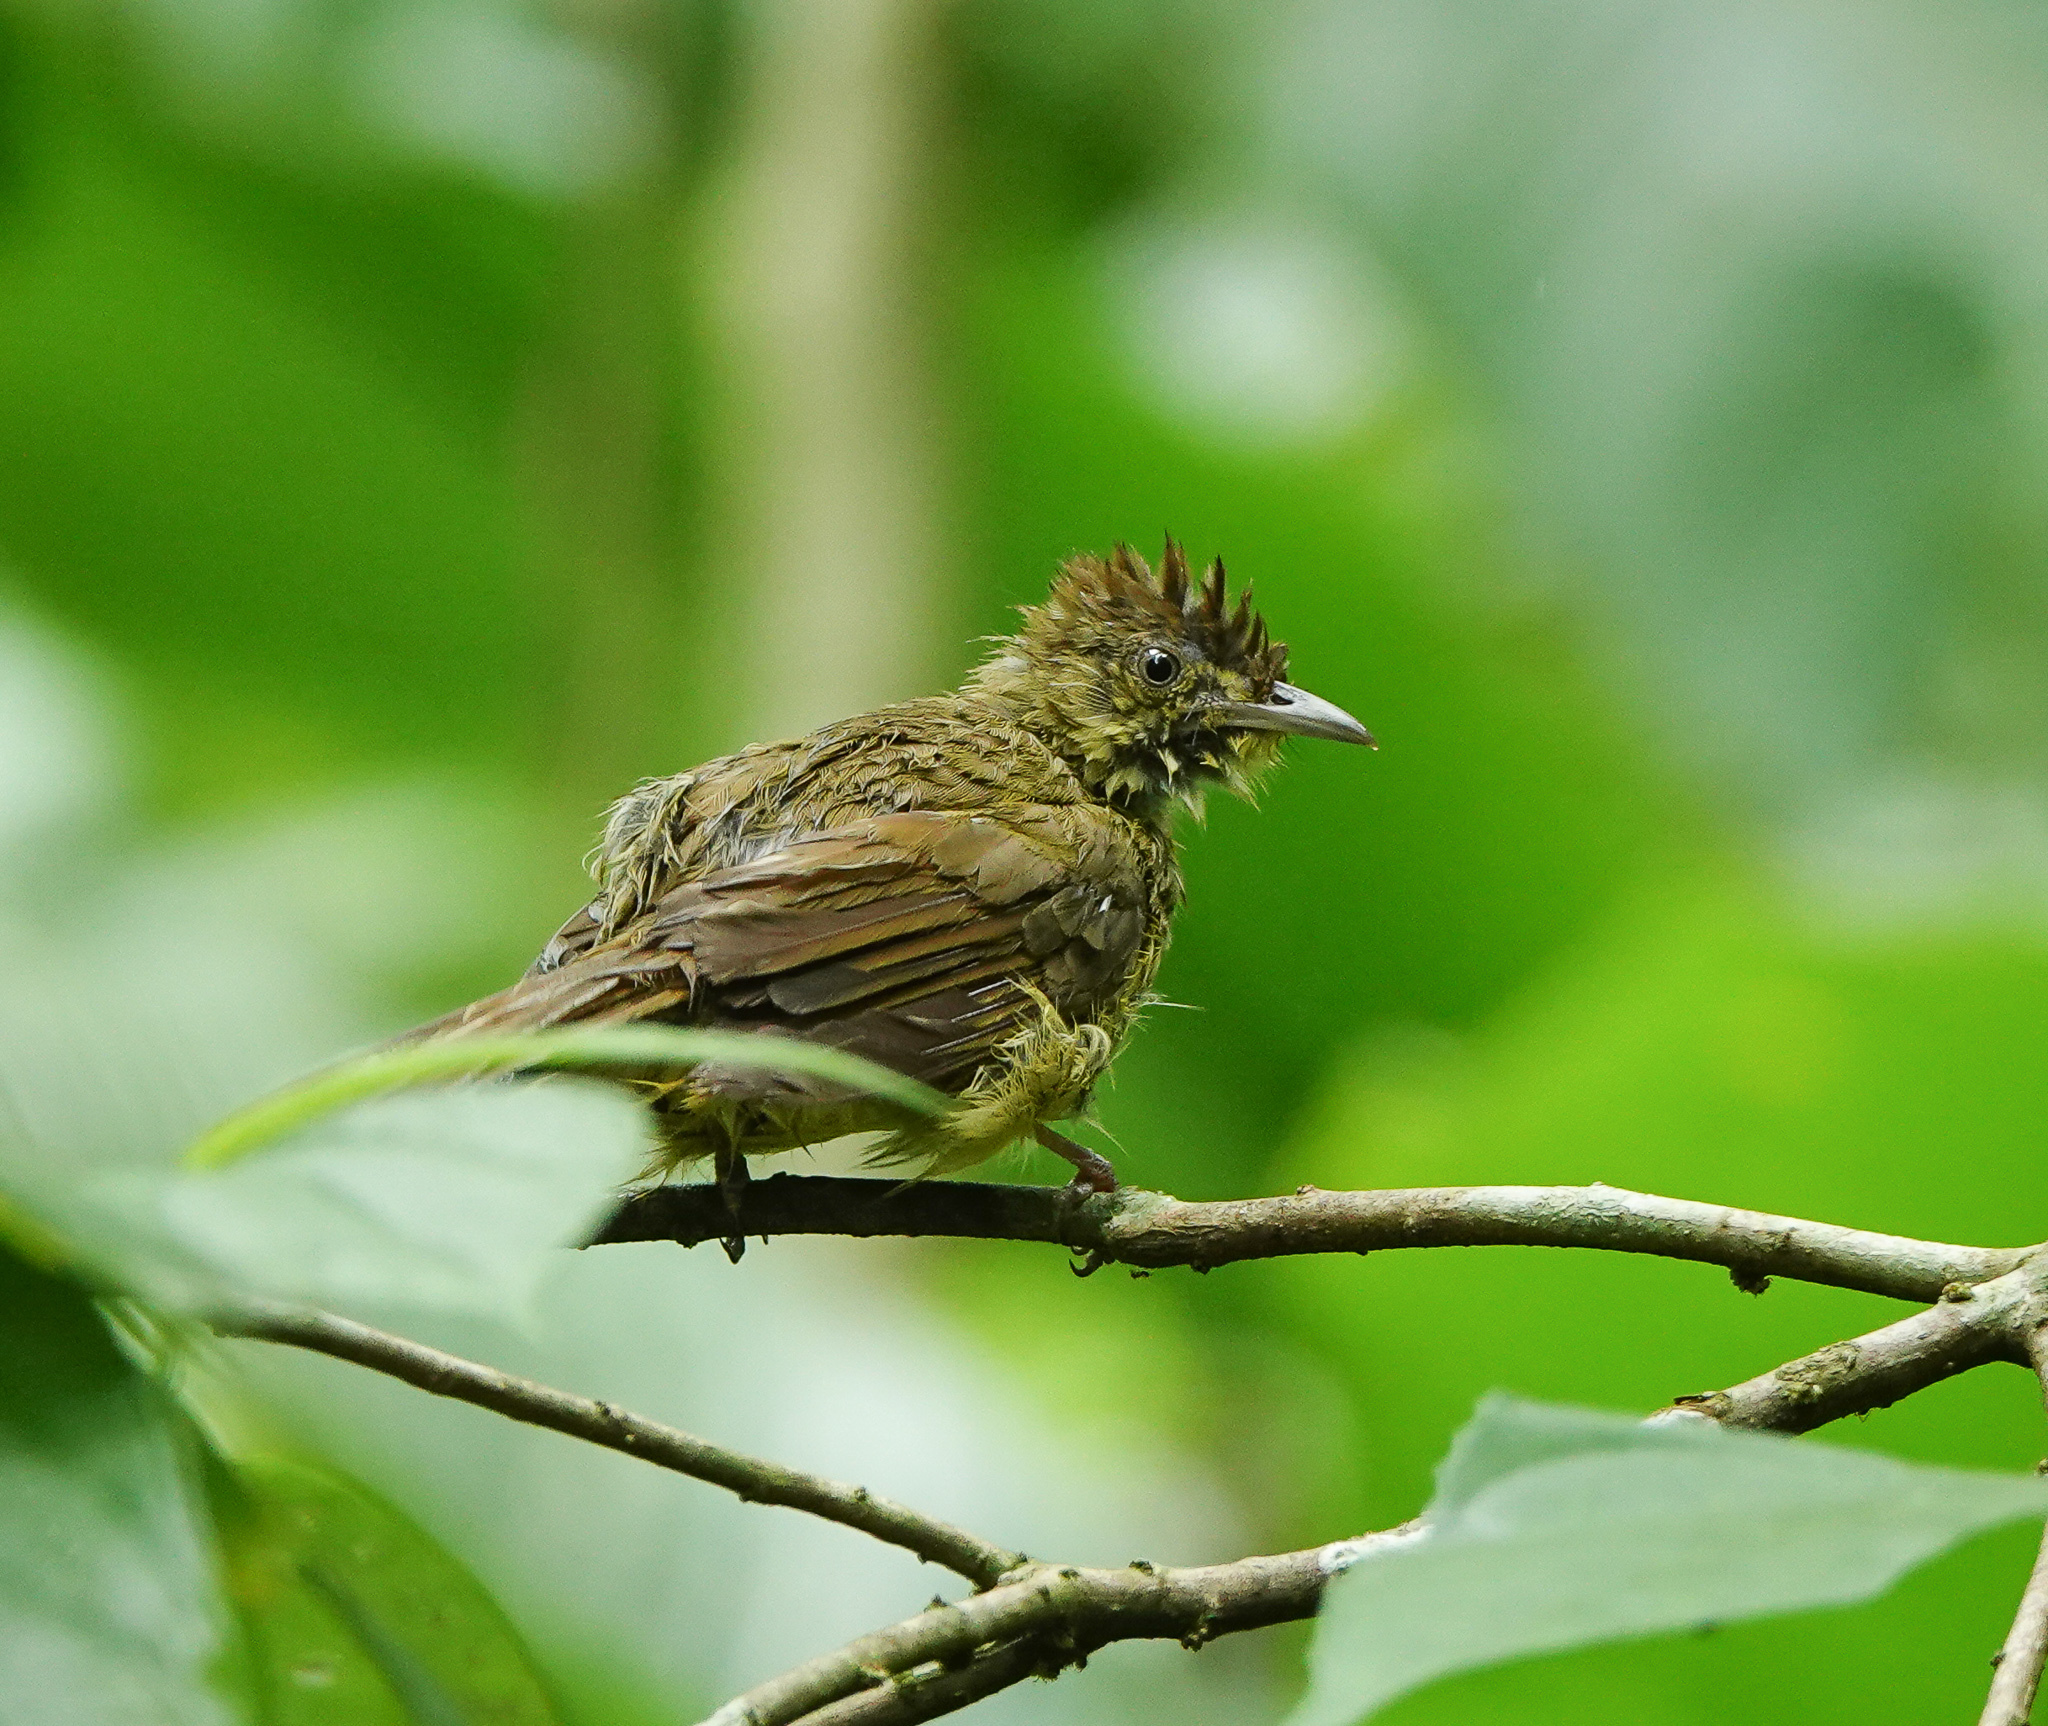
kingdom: Animalia
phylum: Chordata
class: Aves
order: Passeriformes
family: Pycnonotidae
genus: Iole
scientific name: Iole virescens
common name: Olive bulbul
